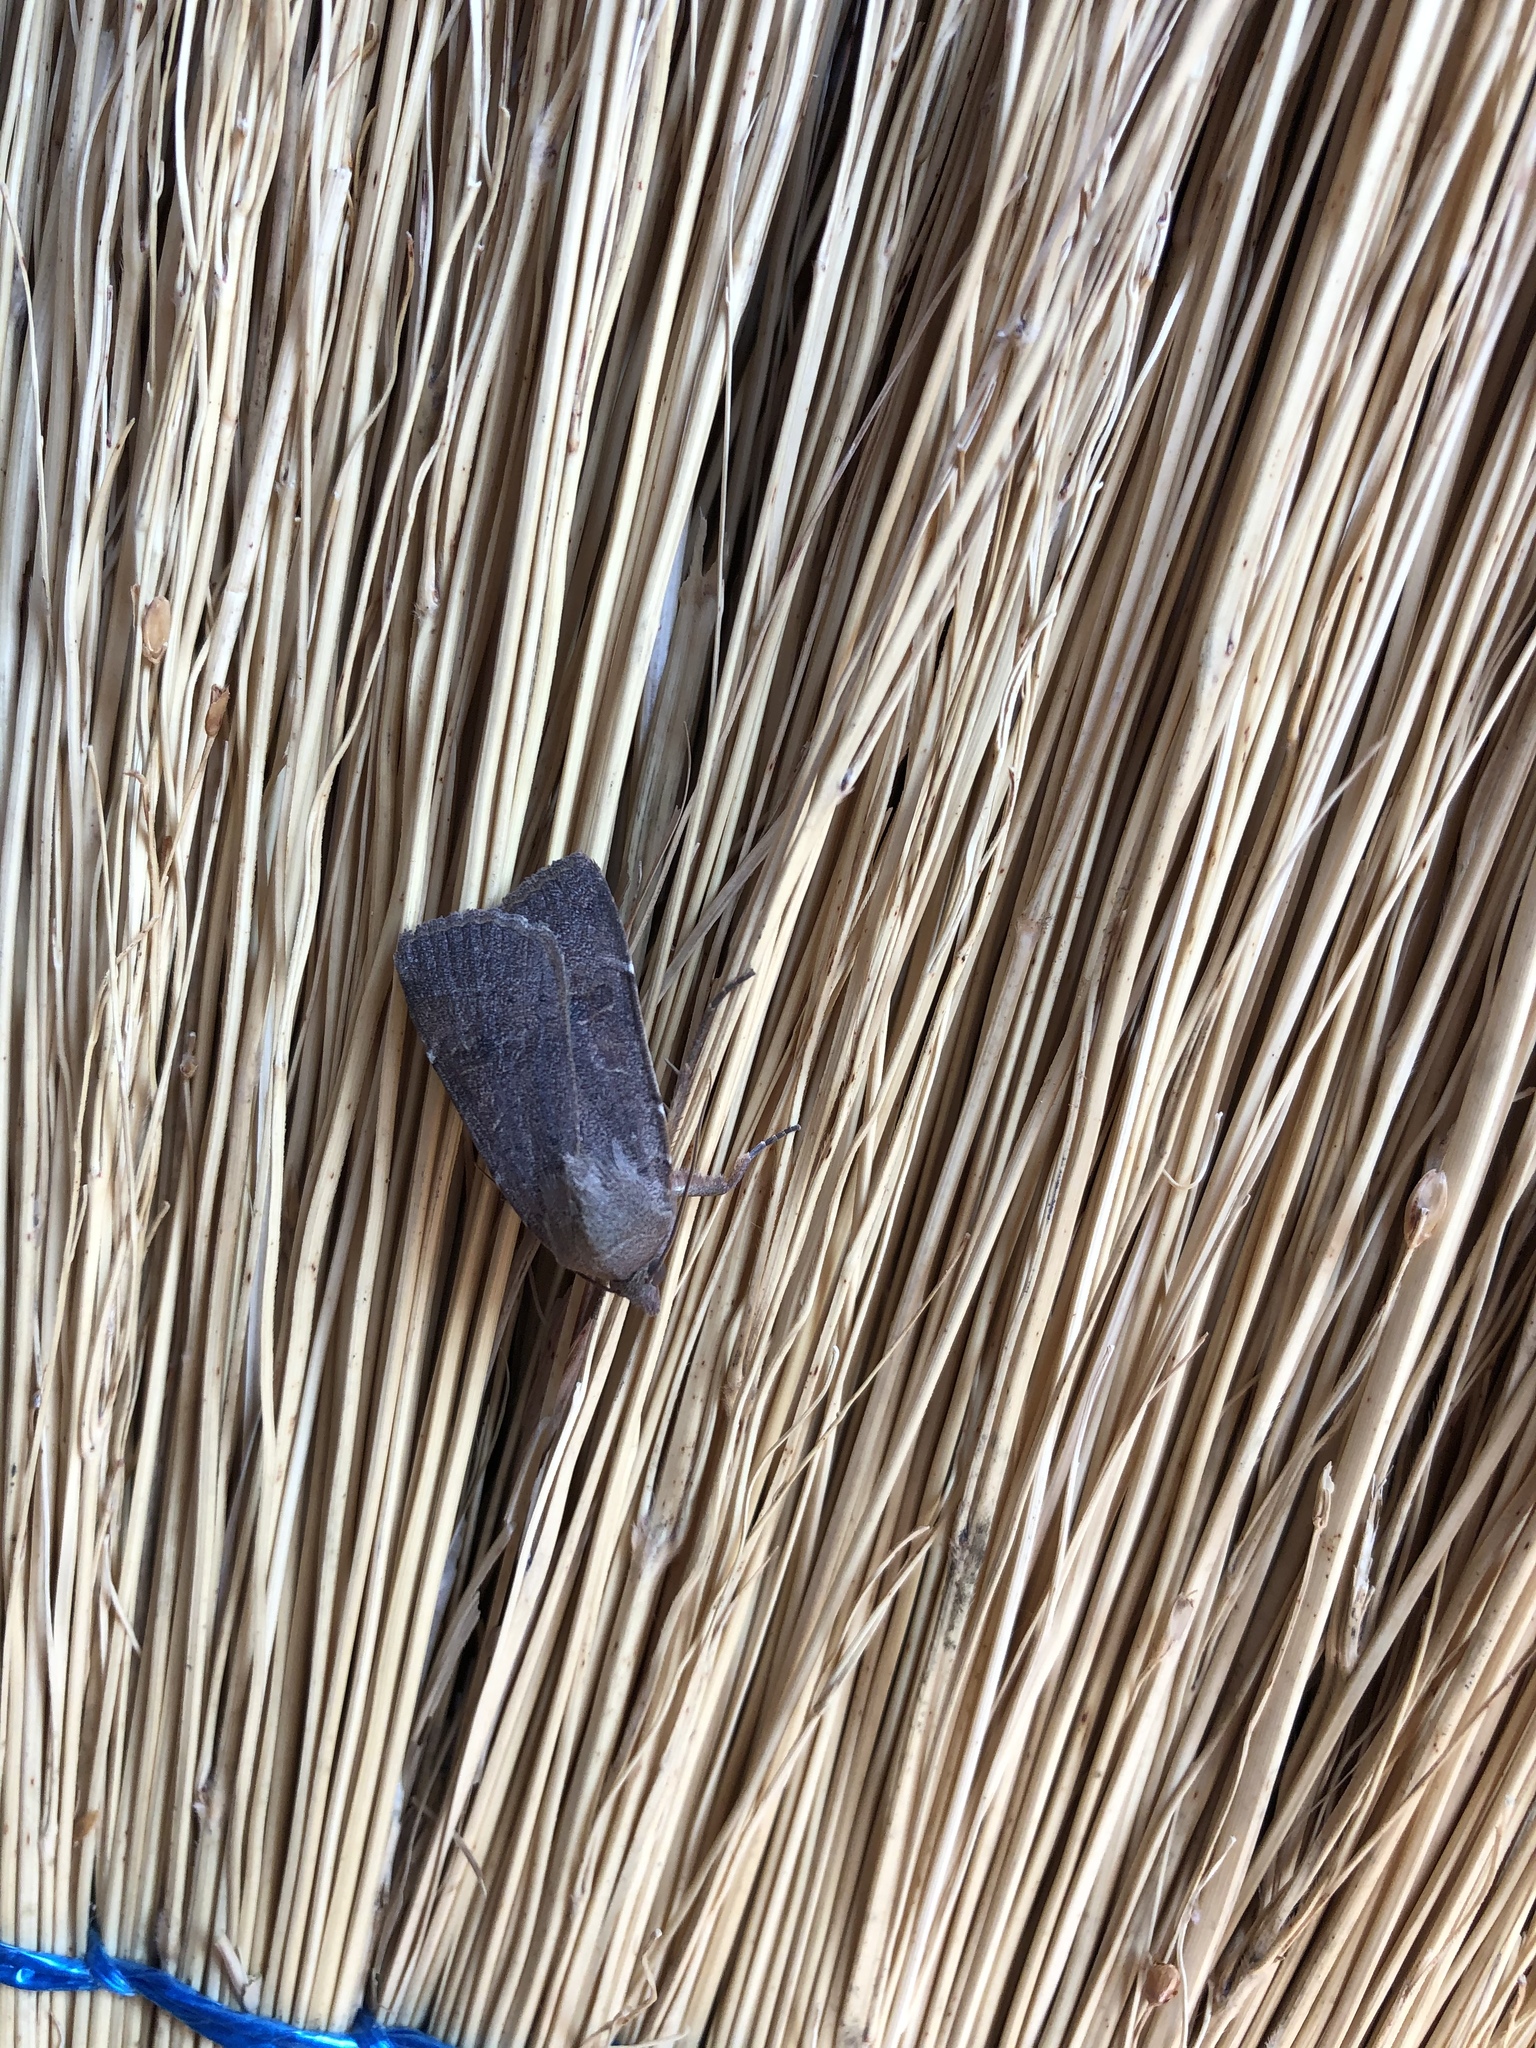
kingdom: Animalia
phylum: Arthropoda
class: Insecta
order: Lepidoptera
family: Noctuidae
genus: Noctua
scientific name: Noctua comes
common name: Lesser yellow underwing
